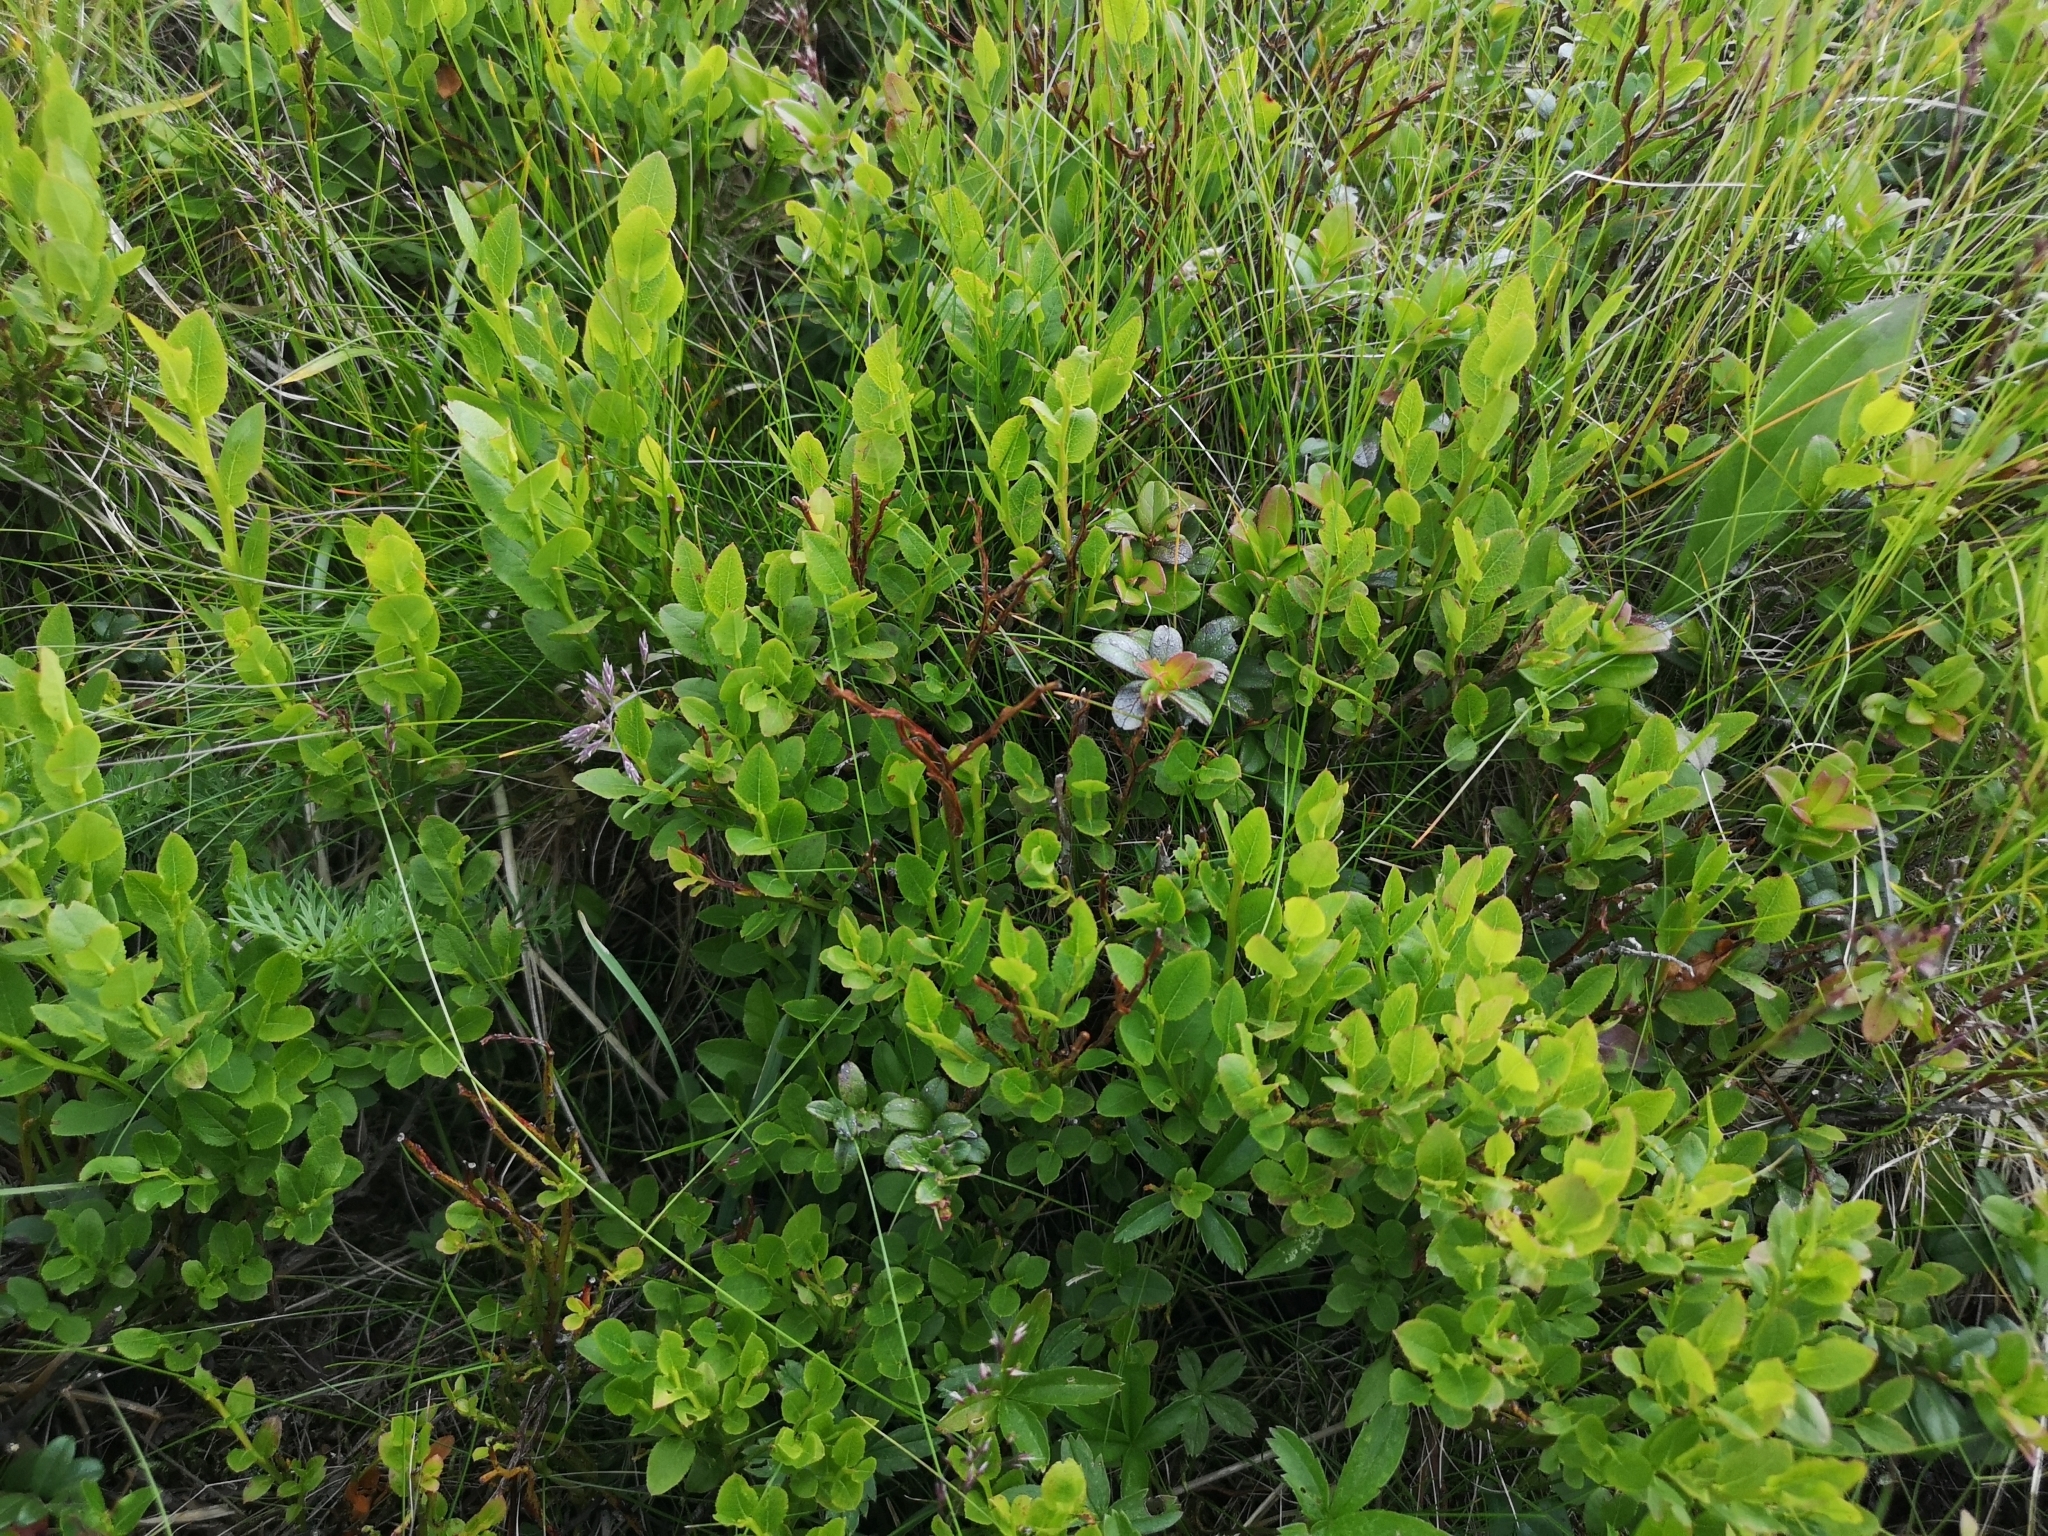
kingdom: Plantae
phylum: Tracheophyta
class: Magnoliopsida
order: Ericales
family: Ericaceae
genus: Vaccinium
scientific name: Vaccinium myrtillus
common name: Bilberry
